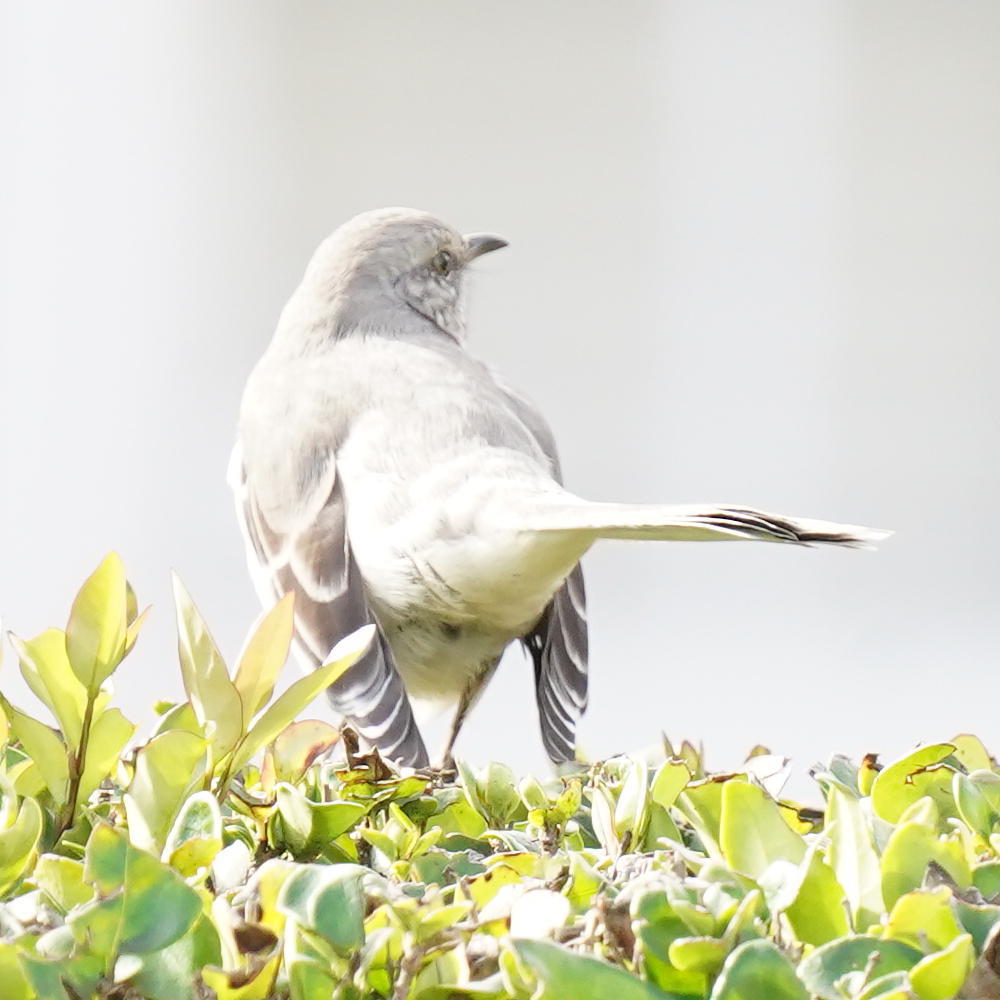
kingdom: Animalia
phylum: Chordata
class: Aves
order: Passeriformes
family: Mimidae
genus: Mimus
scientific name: Mimus polyglottos
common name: Northern mockingbird
